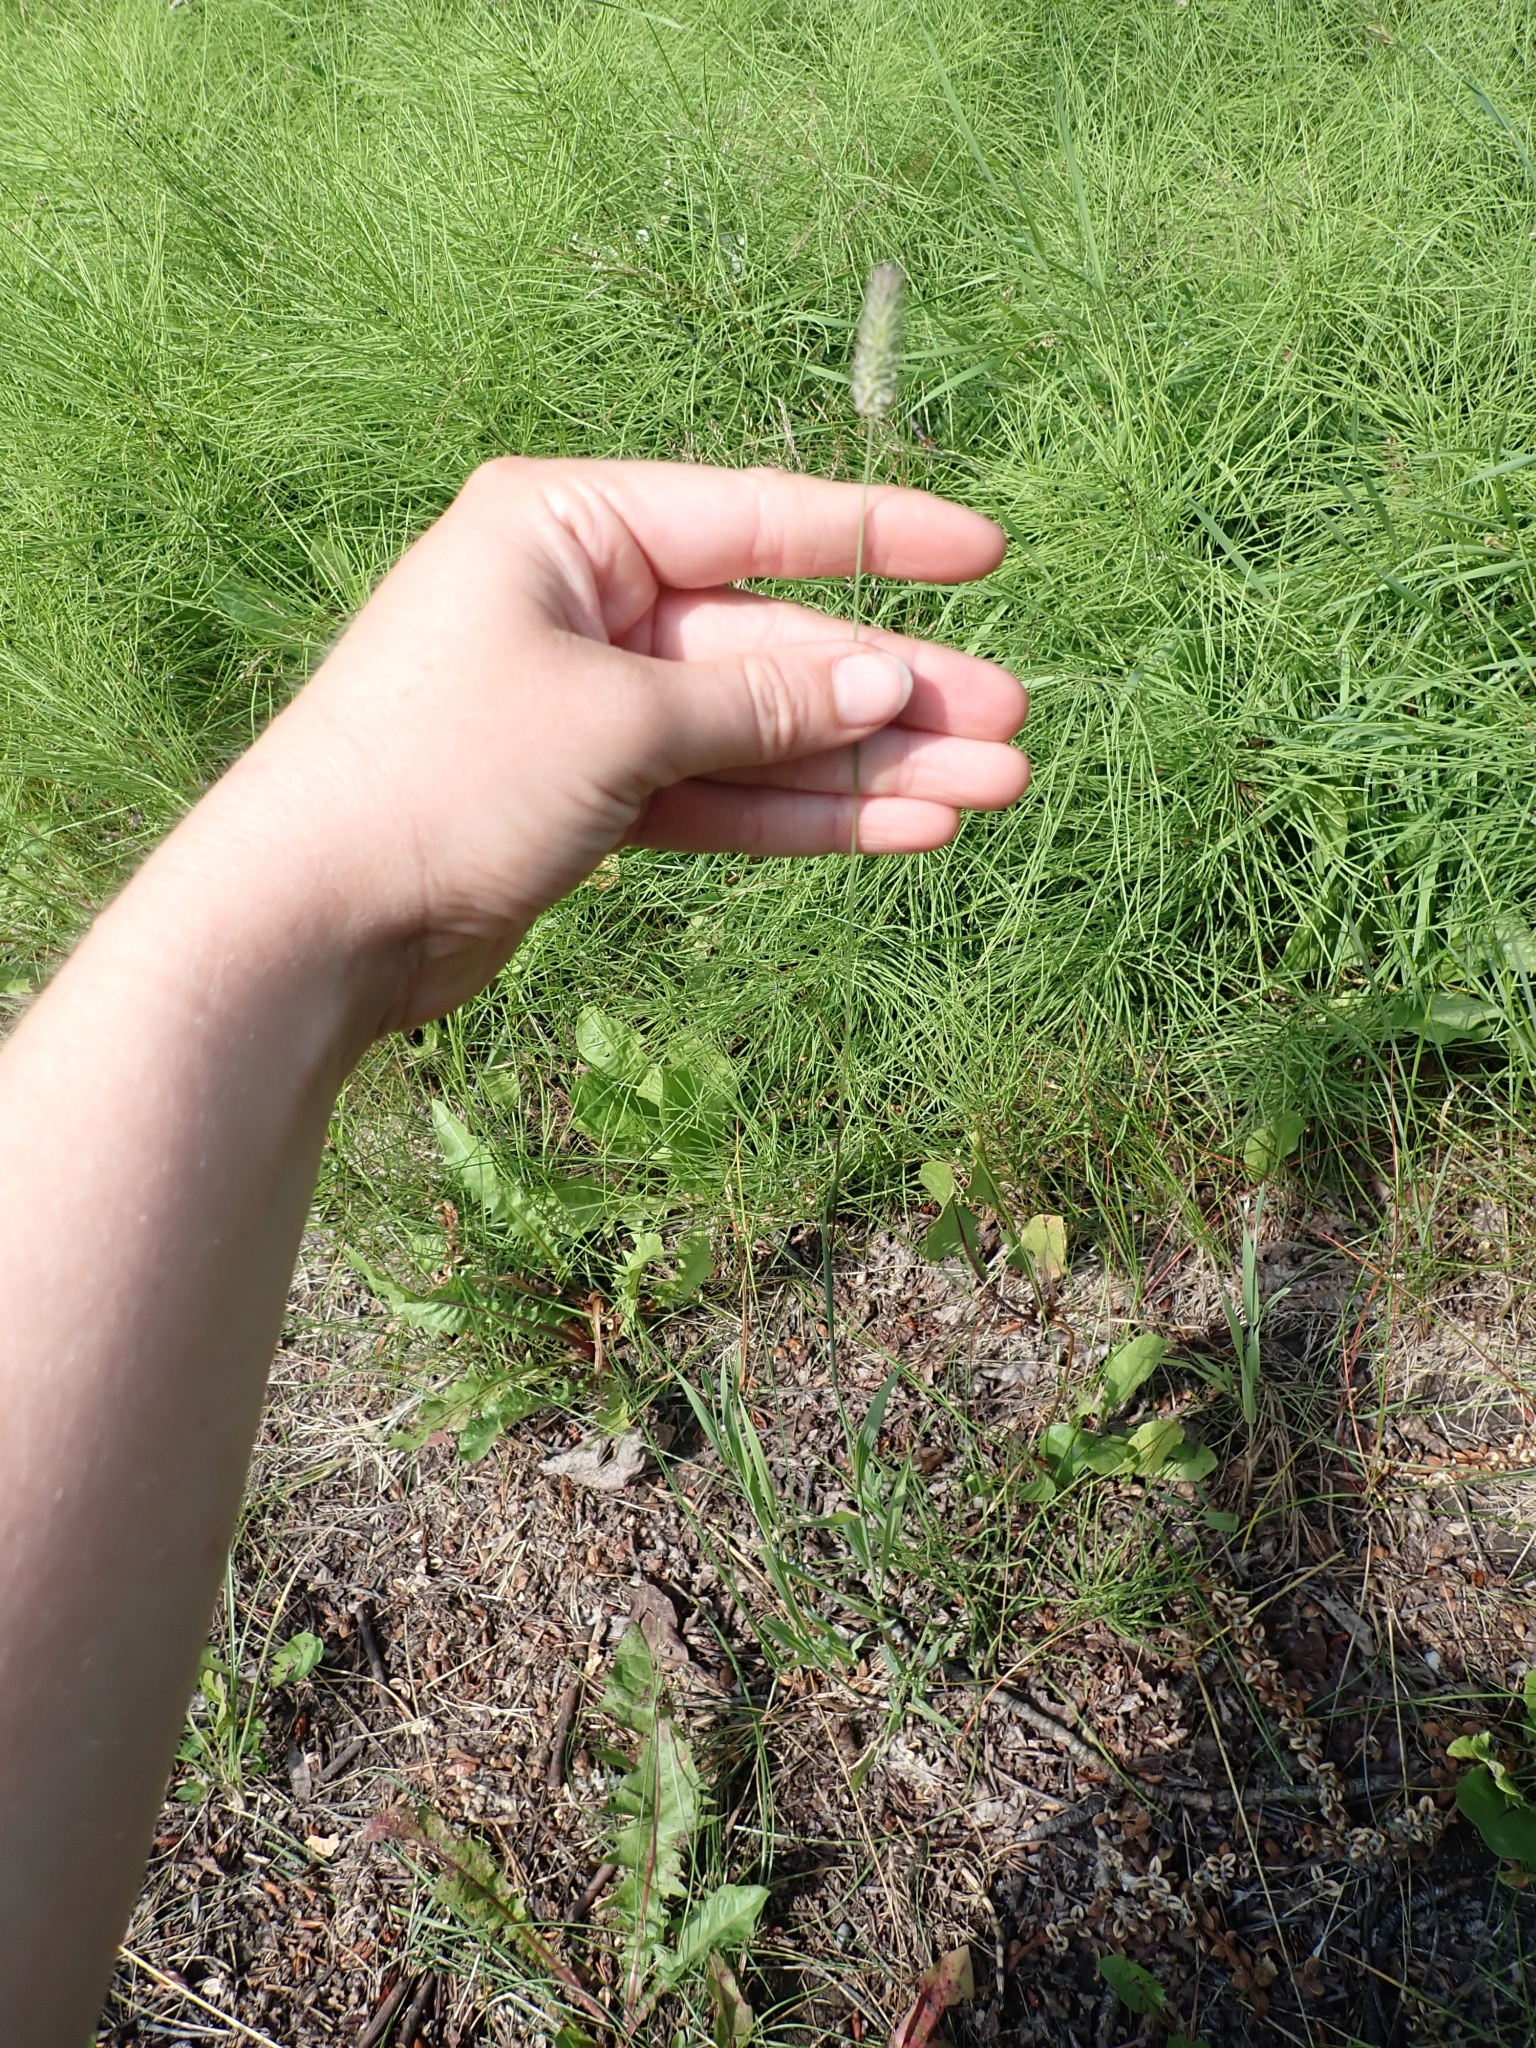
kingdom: Plantae
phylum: Tracheophyta
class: Liliopsida
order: Poales
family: Poaceae
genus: Phleum
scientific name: Phleum alpinum
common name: Alpine cat's-tail
